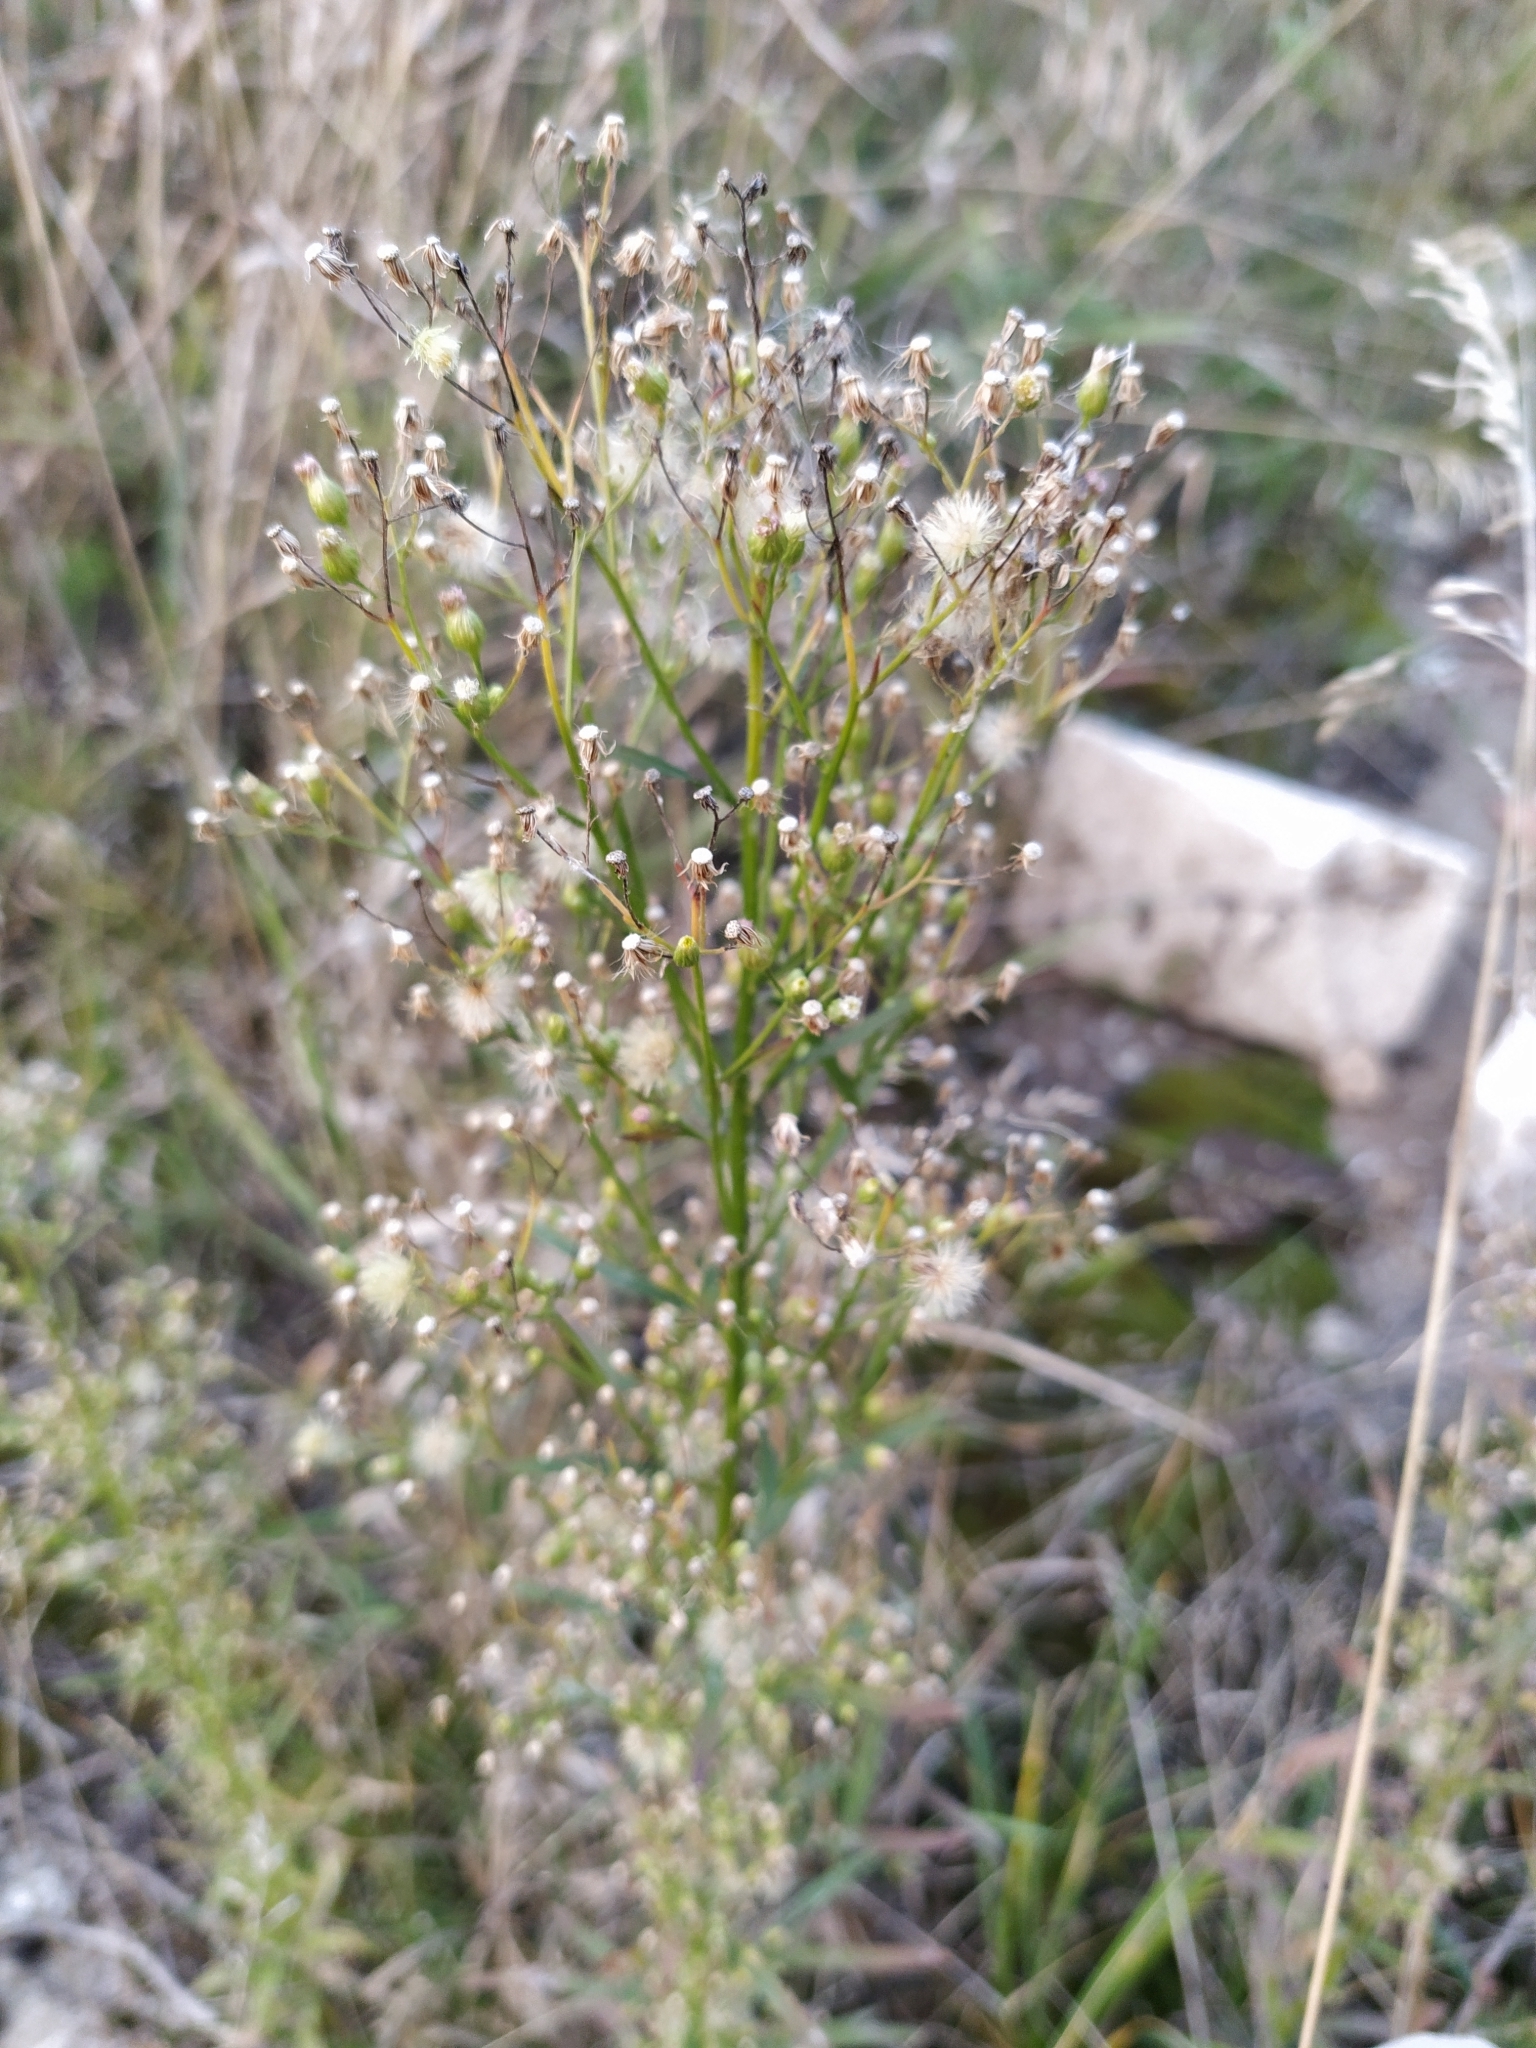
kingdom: Plantae
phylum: Tracheophyta
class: Magnoliopsida
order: Asterales
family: Asteraceae
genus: Erigeron
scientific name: Erigeron canadensis
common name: Canadian fleabane
